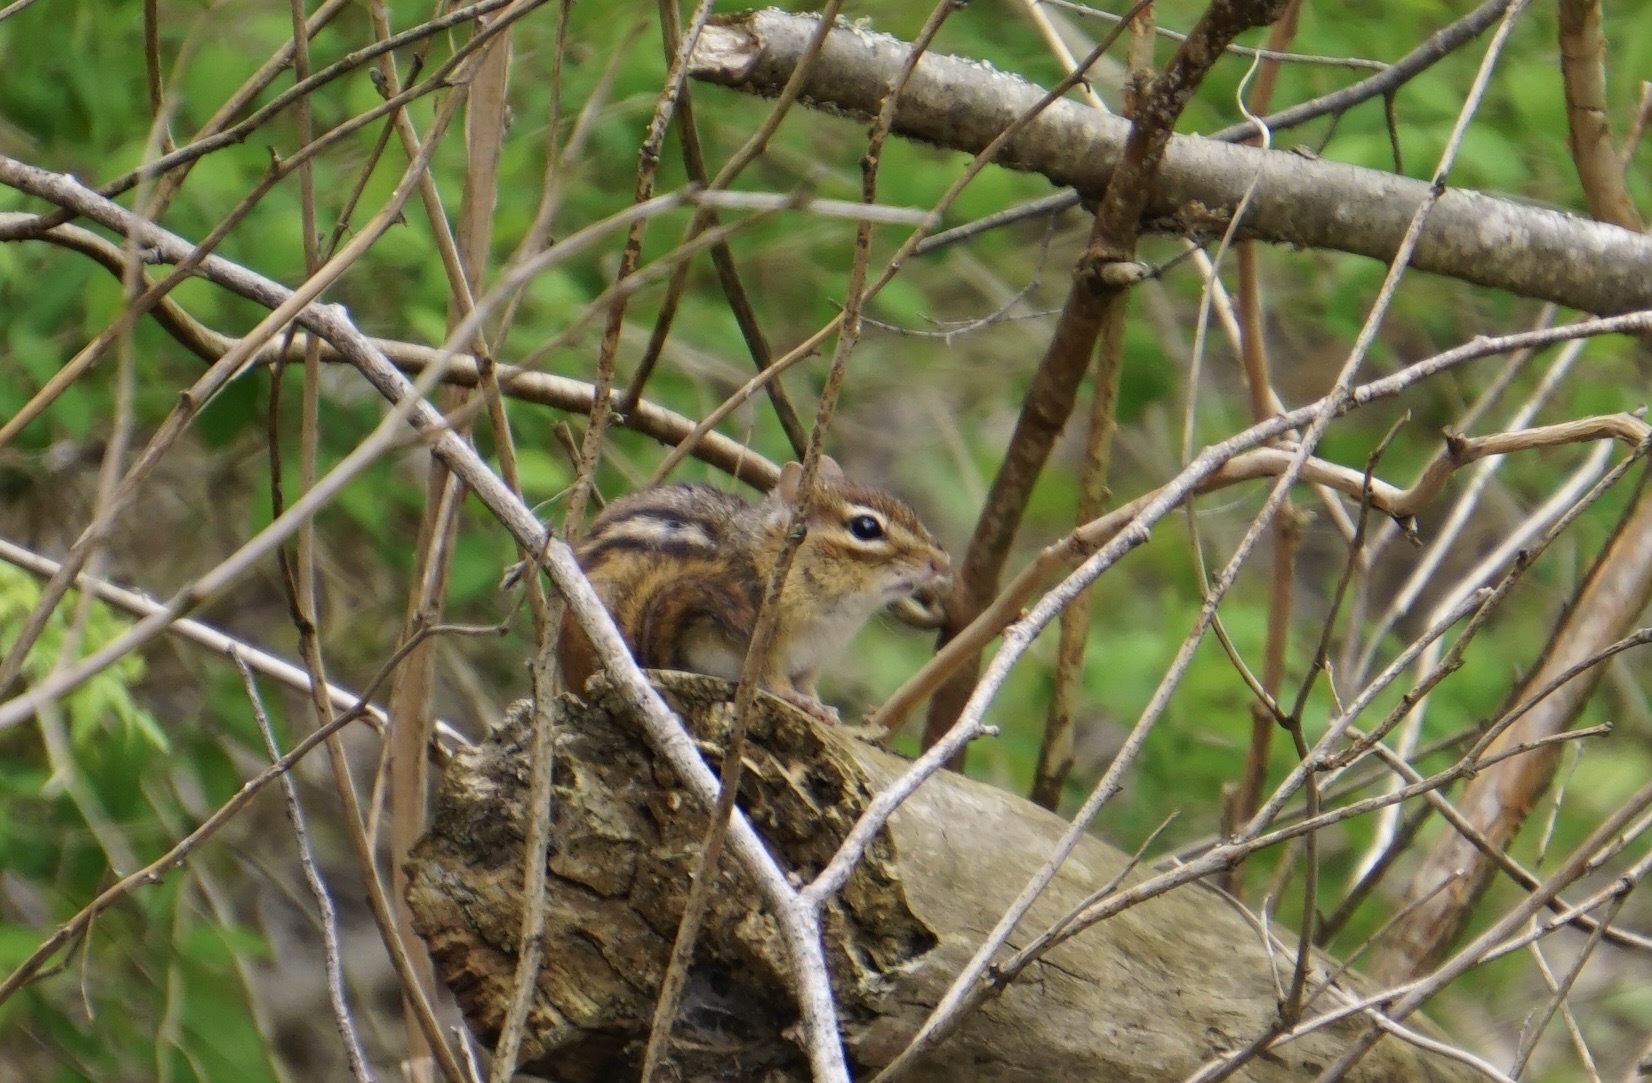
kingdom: Animalia
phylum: Chordata
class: Mammalia
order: Rodentia
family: Sciuridae
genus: Tamias
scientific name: Tamias striatus
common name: Eastern chipmunk
